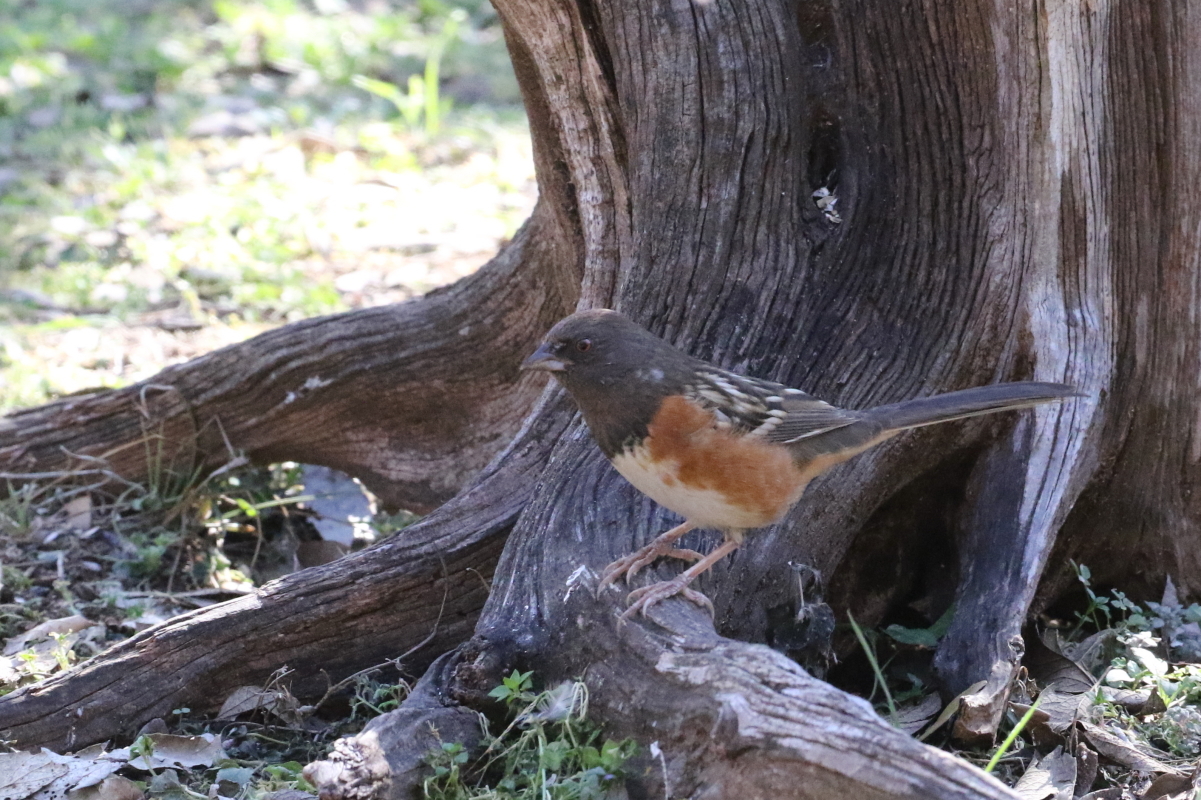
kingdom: Animalia
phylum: Chordata
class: Aves
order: Passeriformes
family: Passerellidae
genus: Pipilo
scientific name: Pipilo maculatus
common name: Spotted towhee
